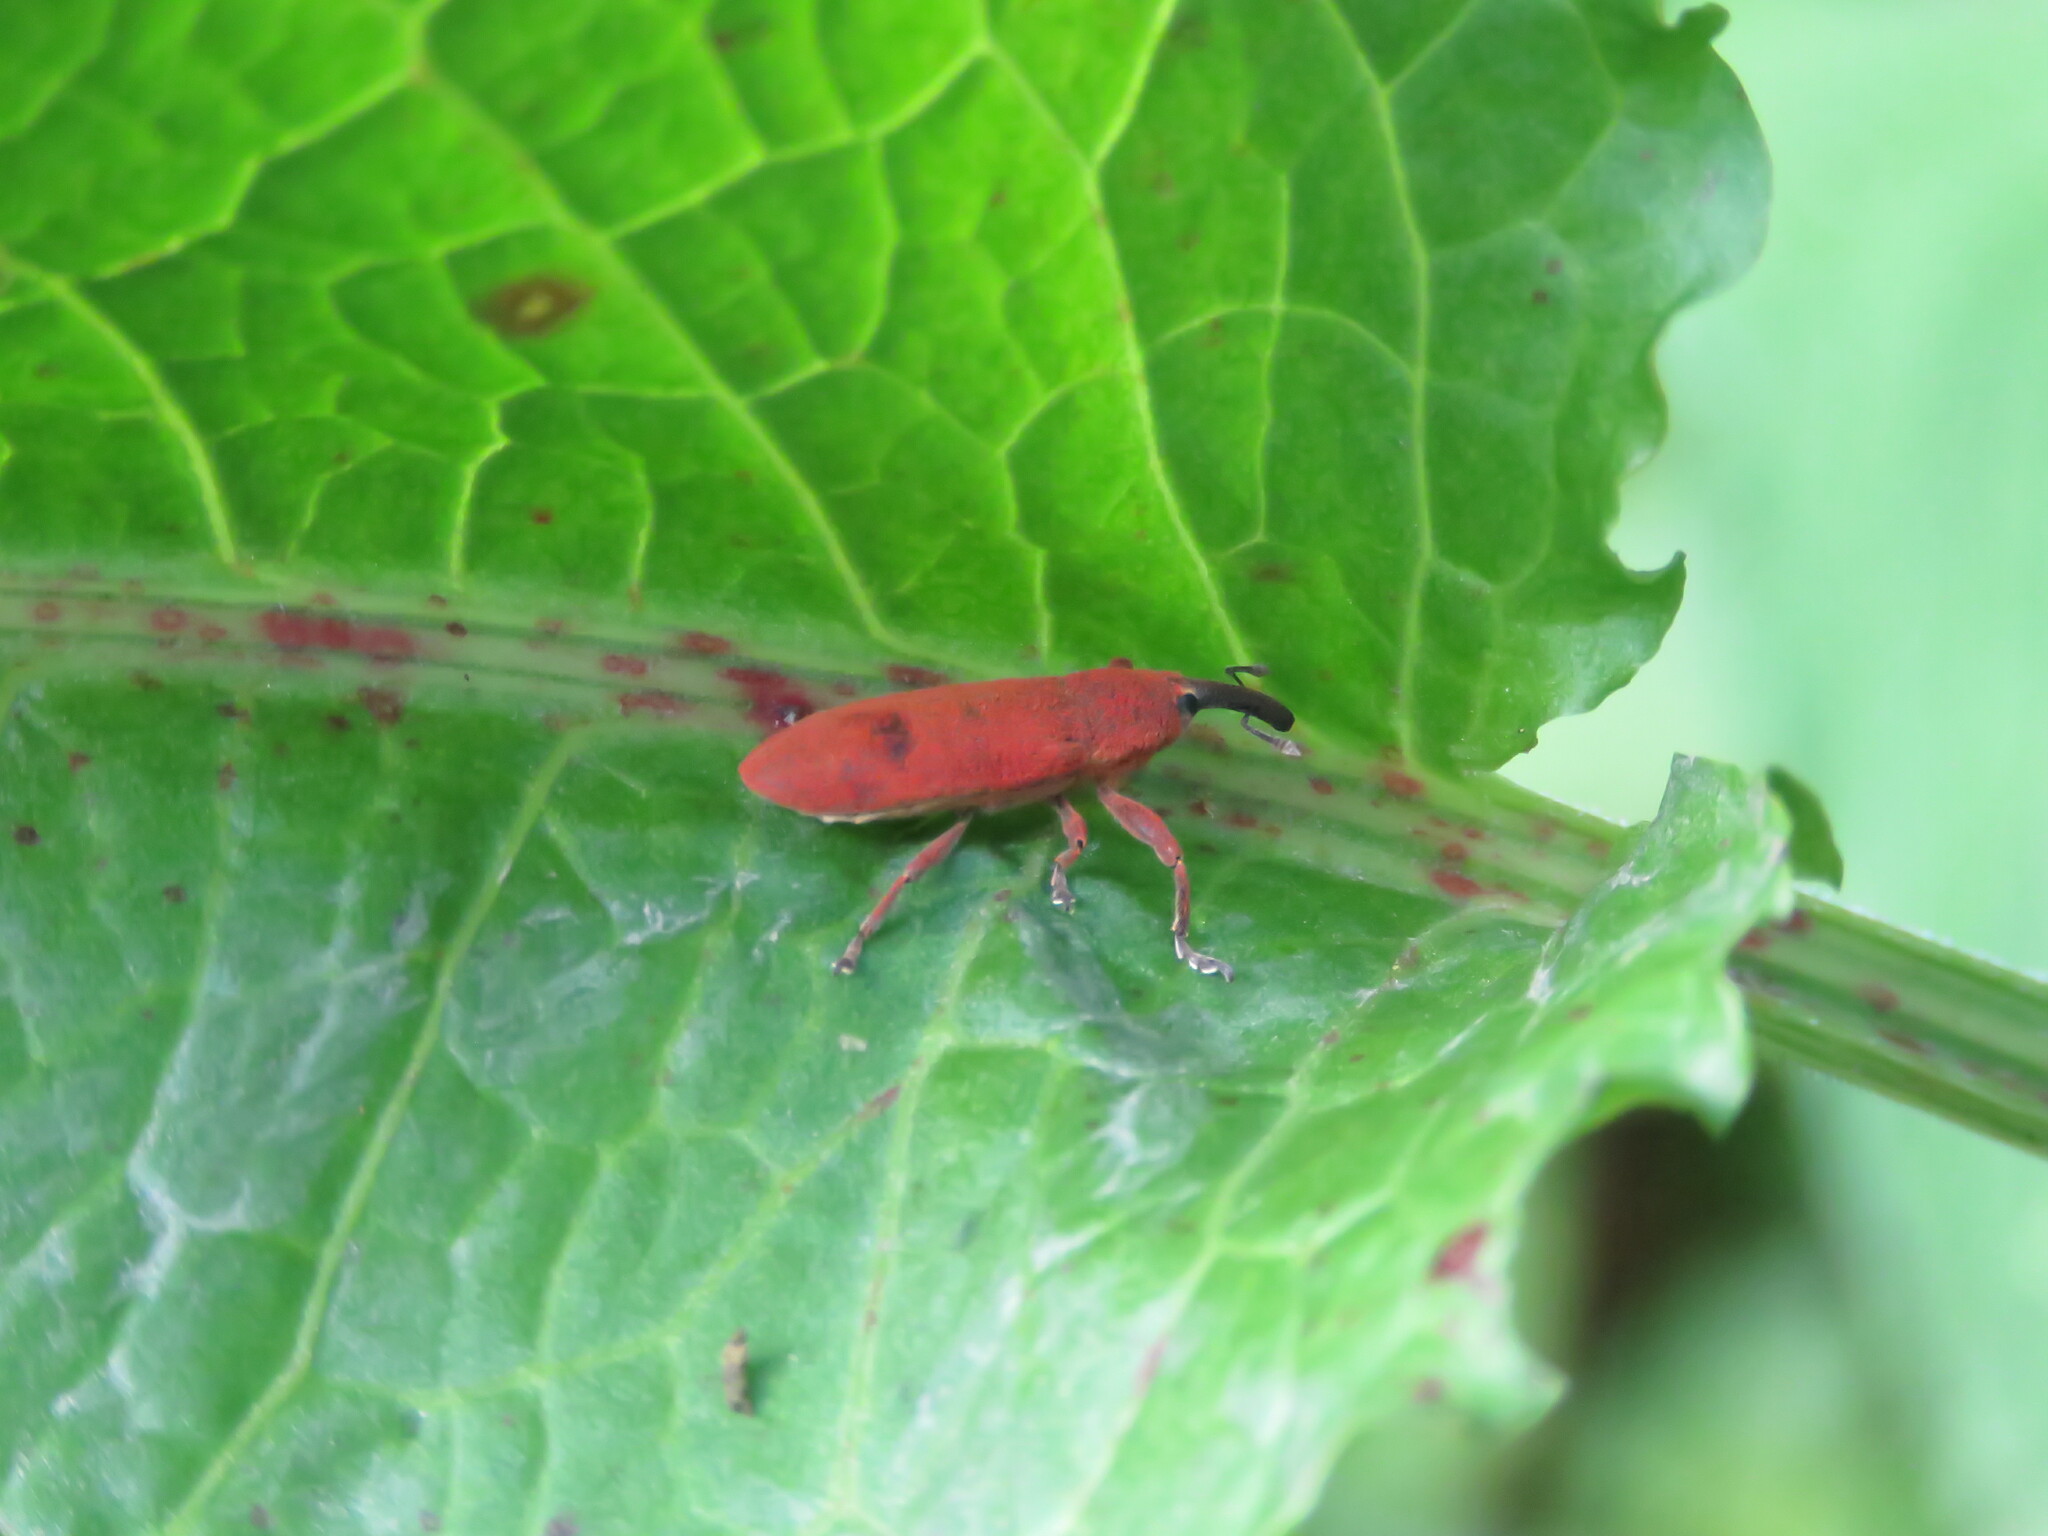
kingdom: Animalia
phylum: Arthropoda
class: Insecta
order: Coleoptera
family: Curculionidae
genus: Lixus
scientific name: Lixus linearis
